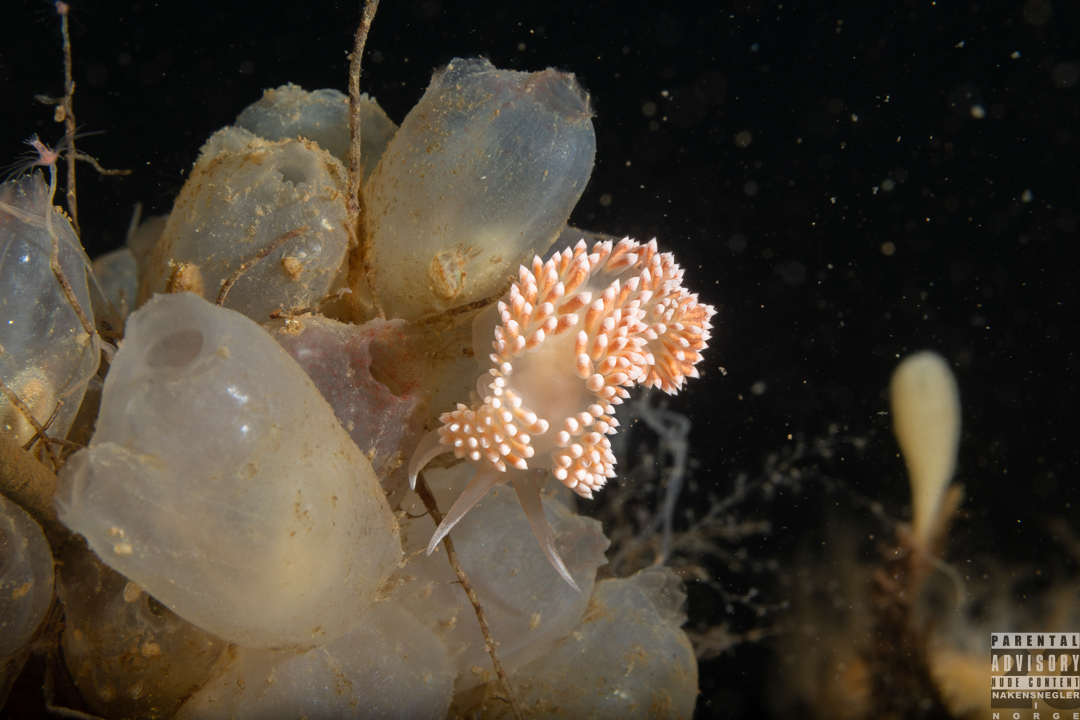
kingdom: Animalia
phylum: Mollusca
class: Gastropoda
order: Nudibranchia
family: Coryphellidae
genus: Coryphella
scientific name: Coryphella verrucosa
